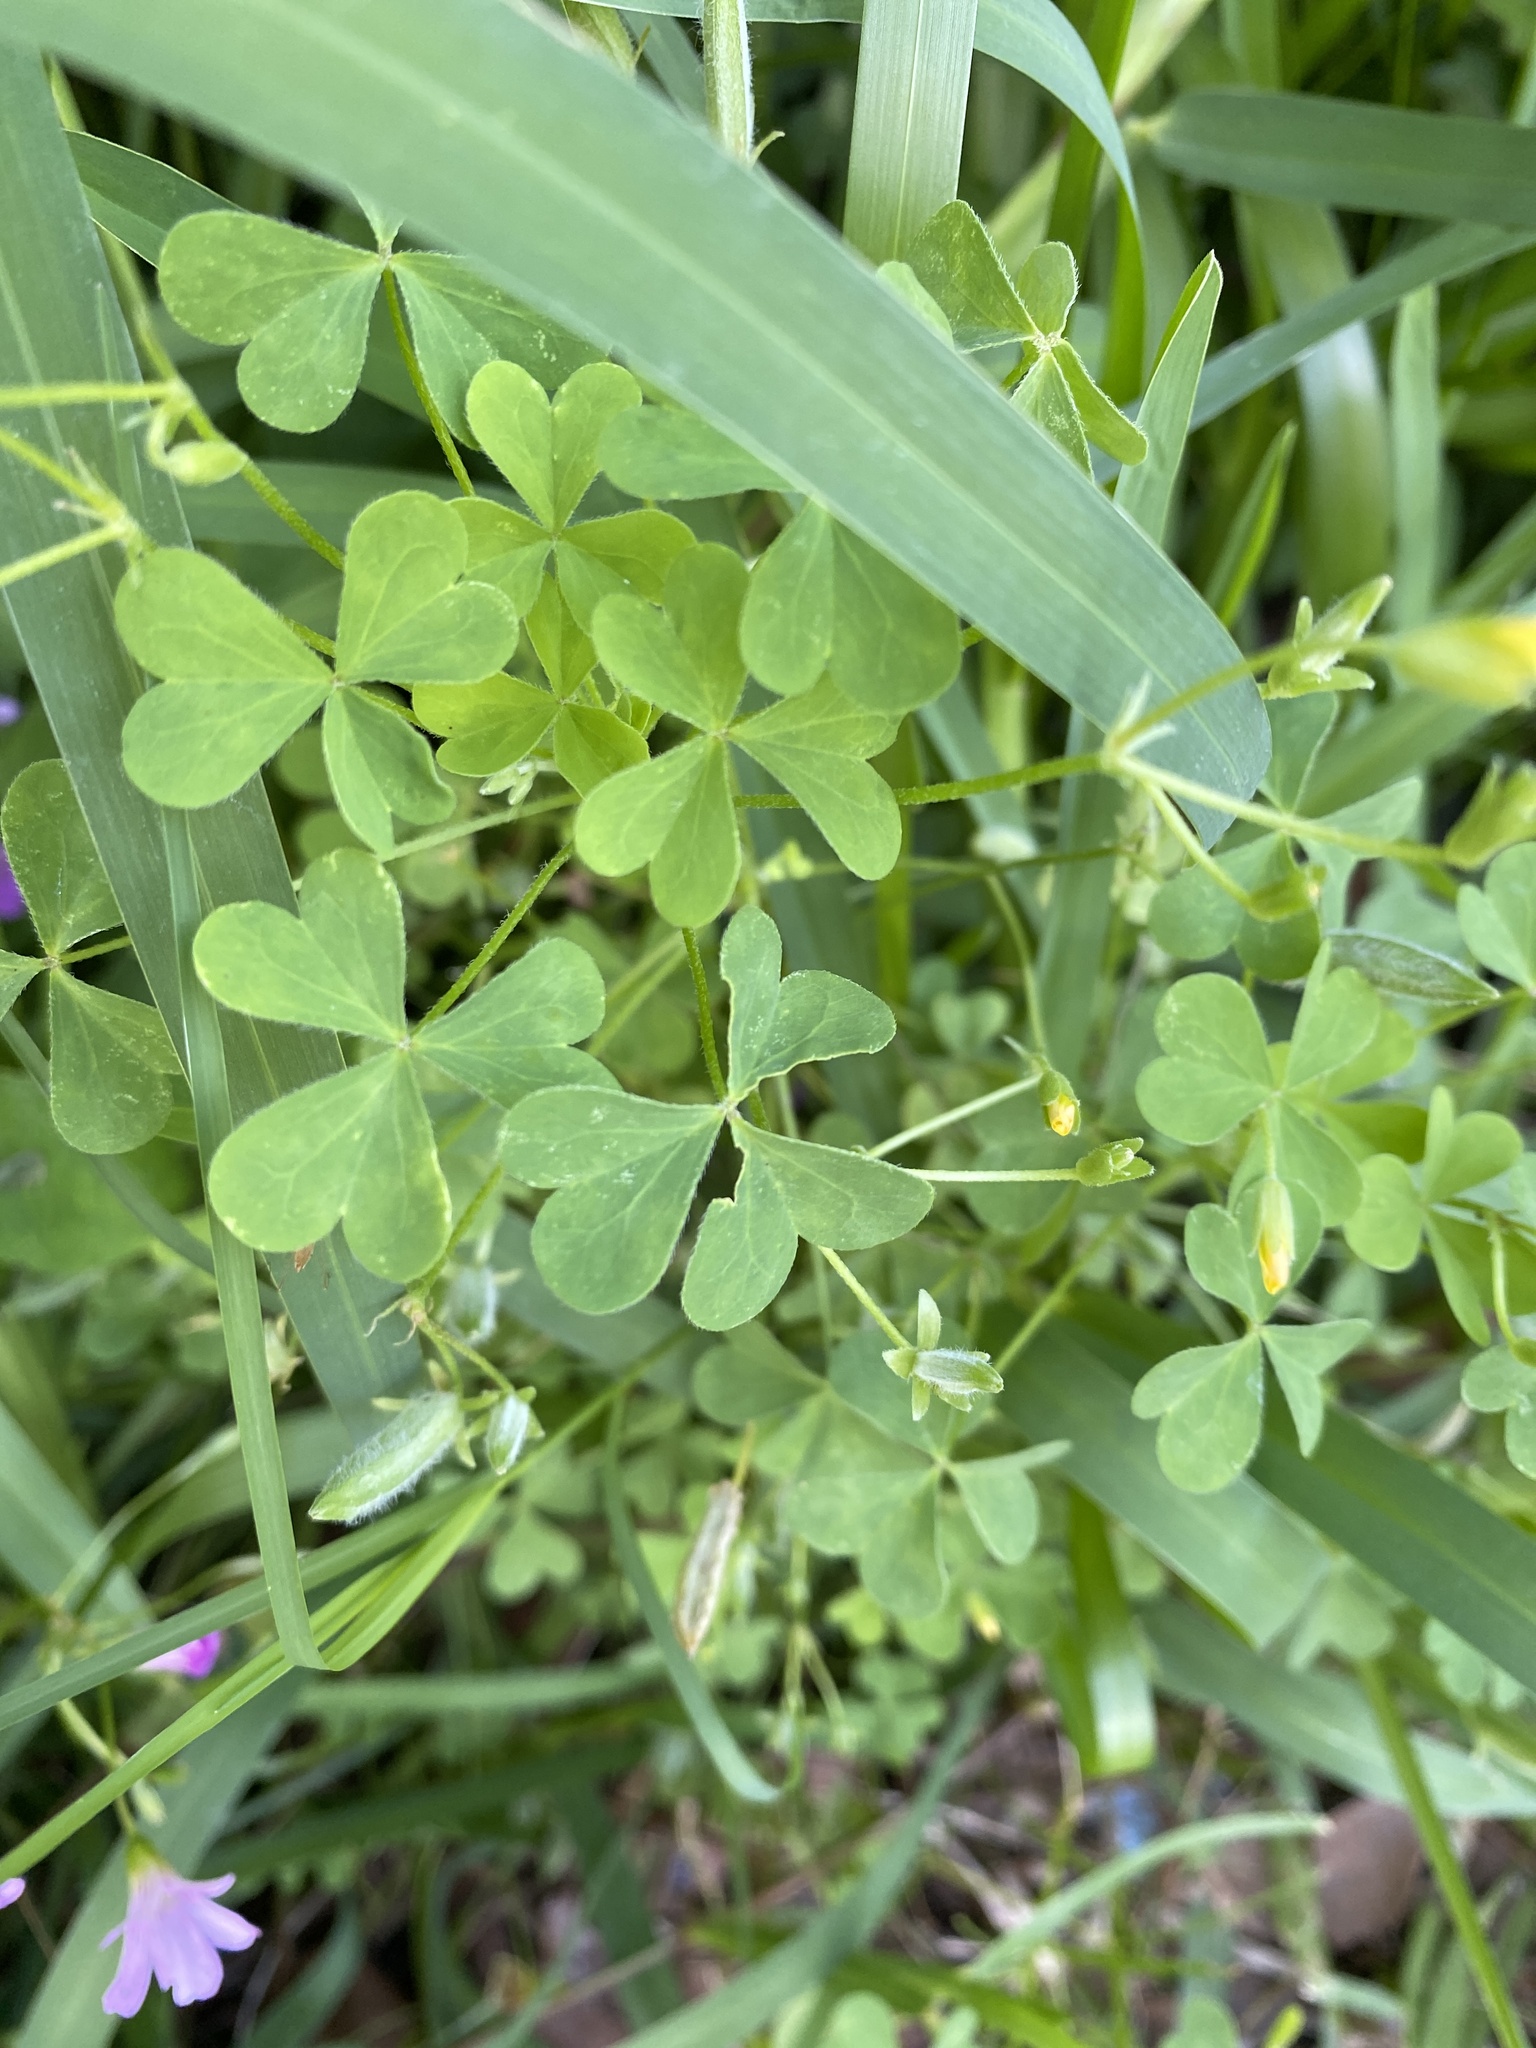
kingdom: Plantae
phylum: Tracheophyta
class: Magnoliopsida
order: Oxalidales
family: Oxalidaceae
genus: Oxalis
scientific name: Oxalis dillenii
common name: Sussex yellow-sorrel
